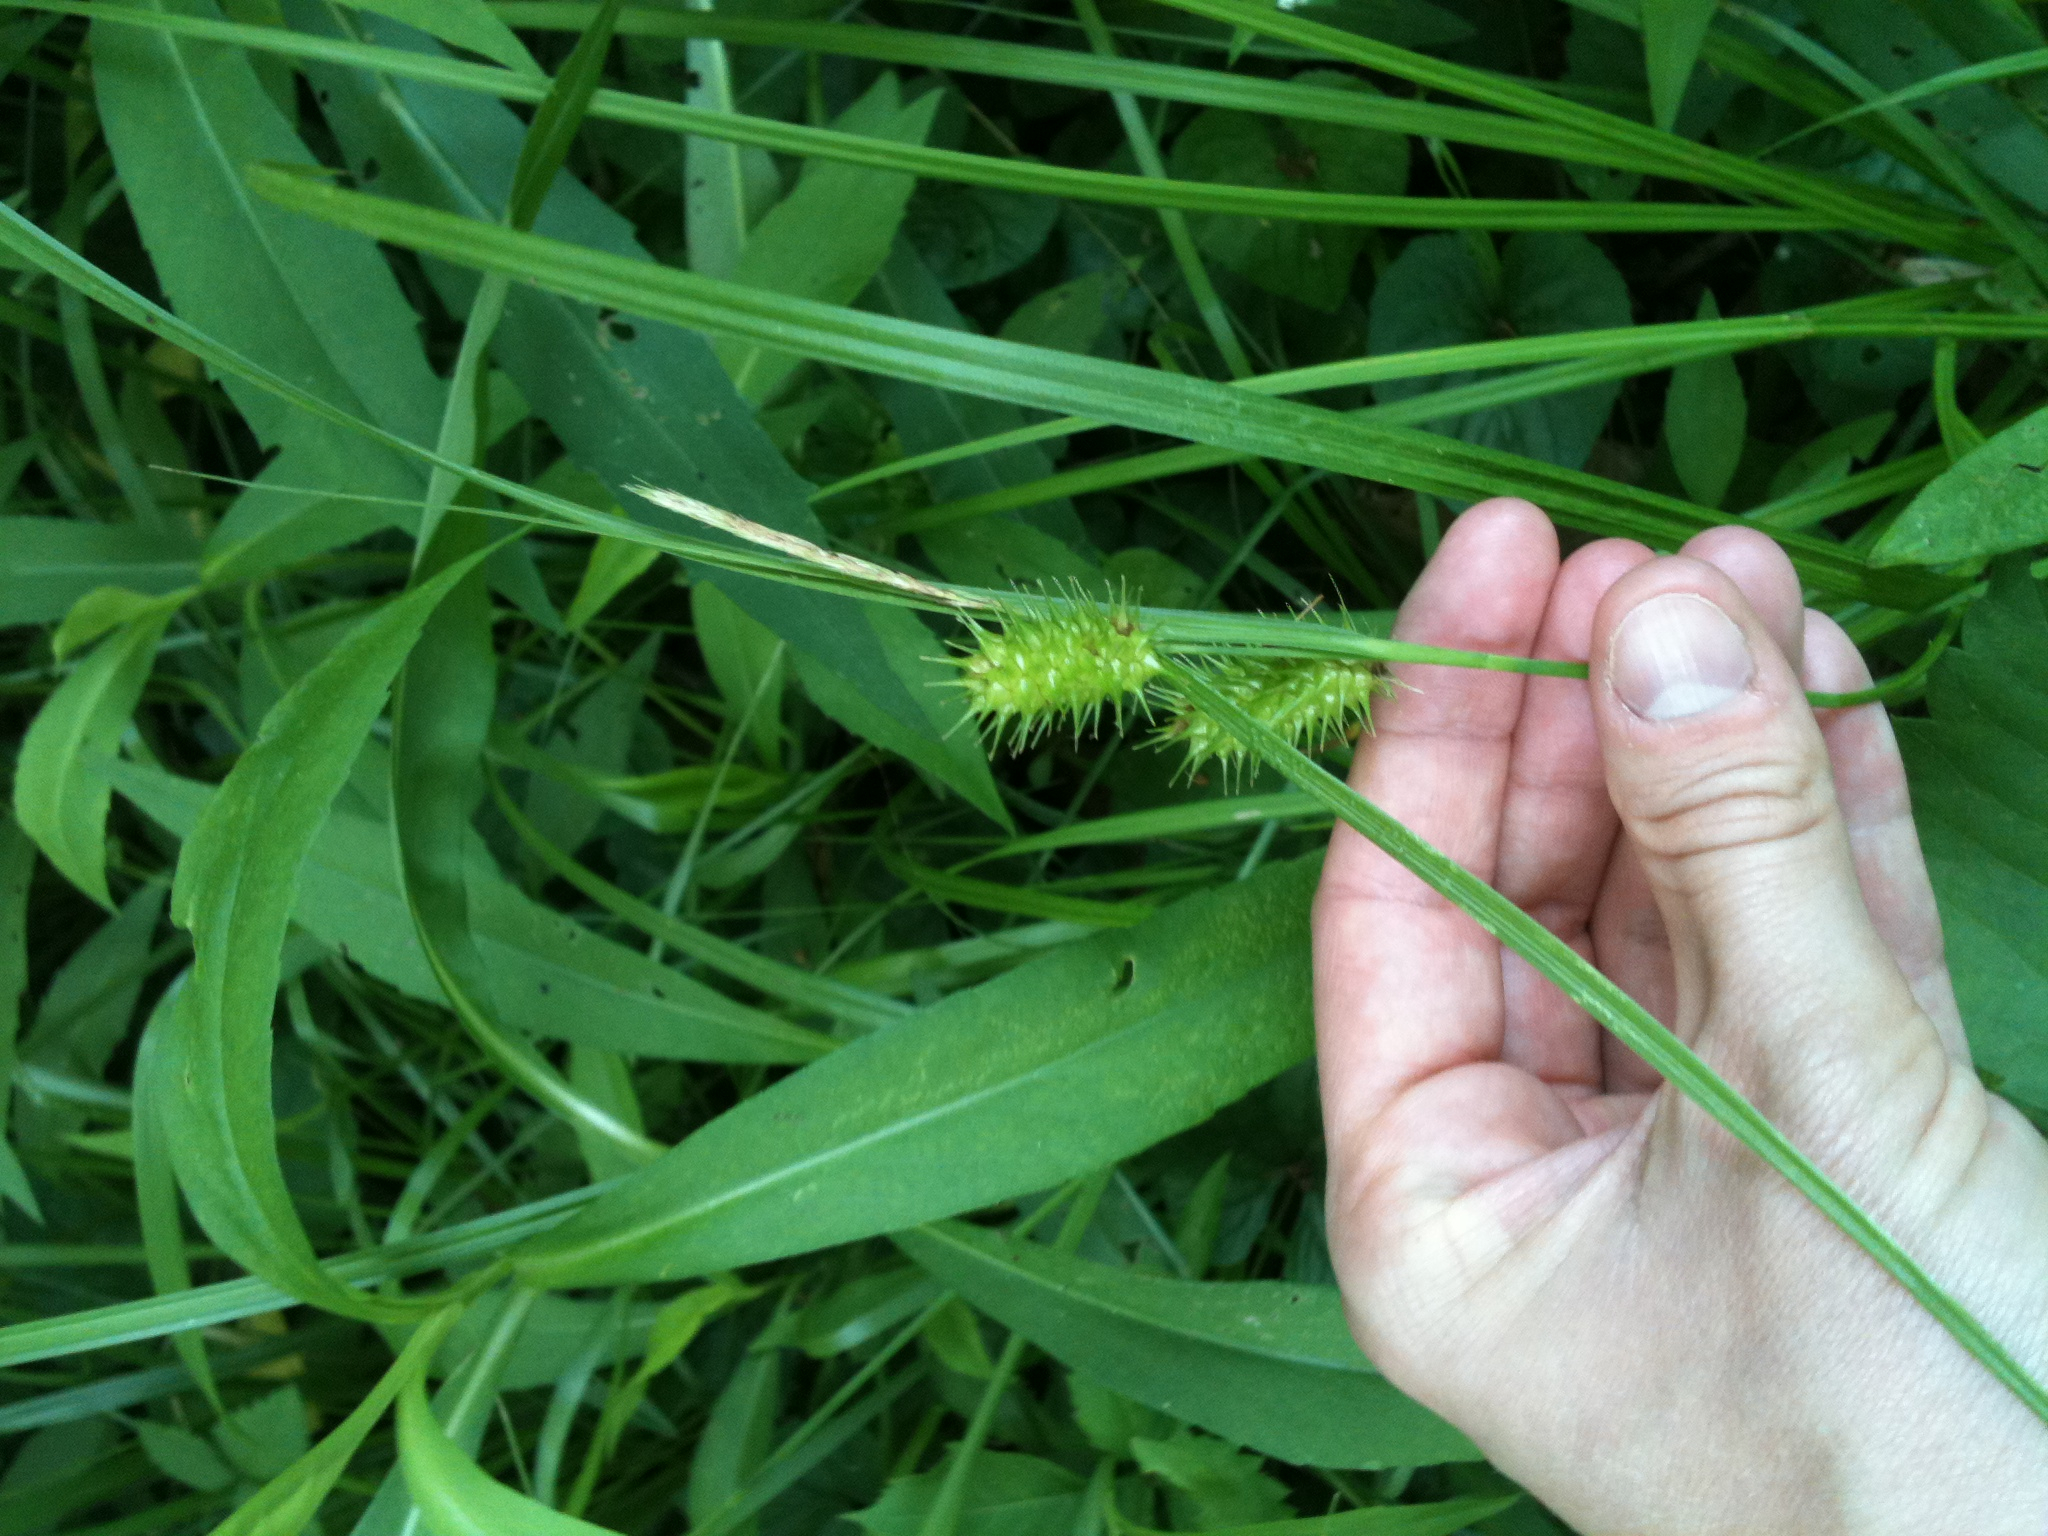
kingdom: Plantae
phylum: Tracheophyta
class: Liliopsida
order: Poales
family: Cyperaceae
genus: Carex
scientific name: Carex lurida
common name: Sallow sedge
